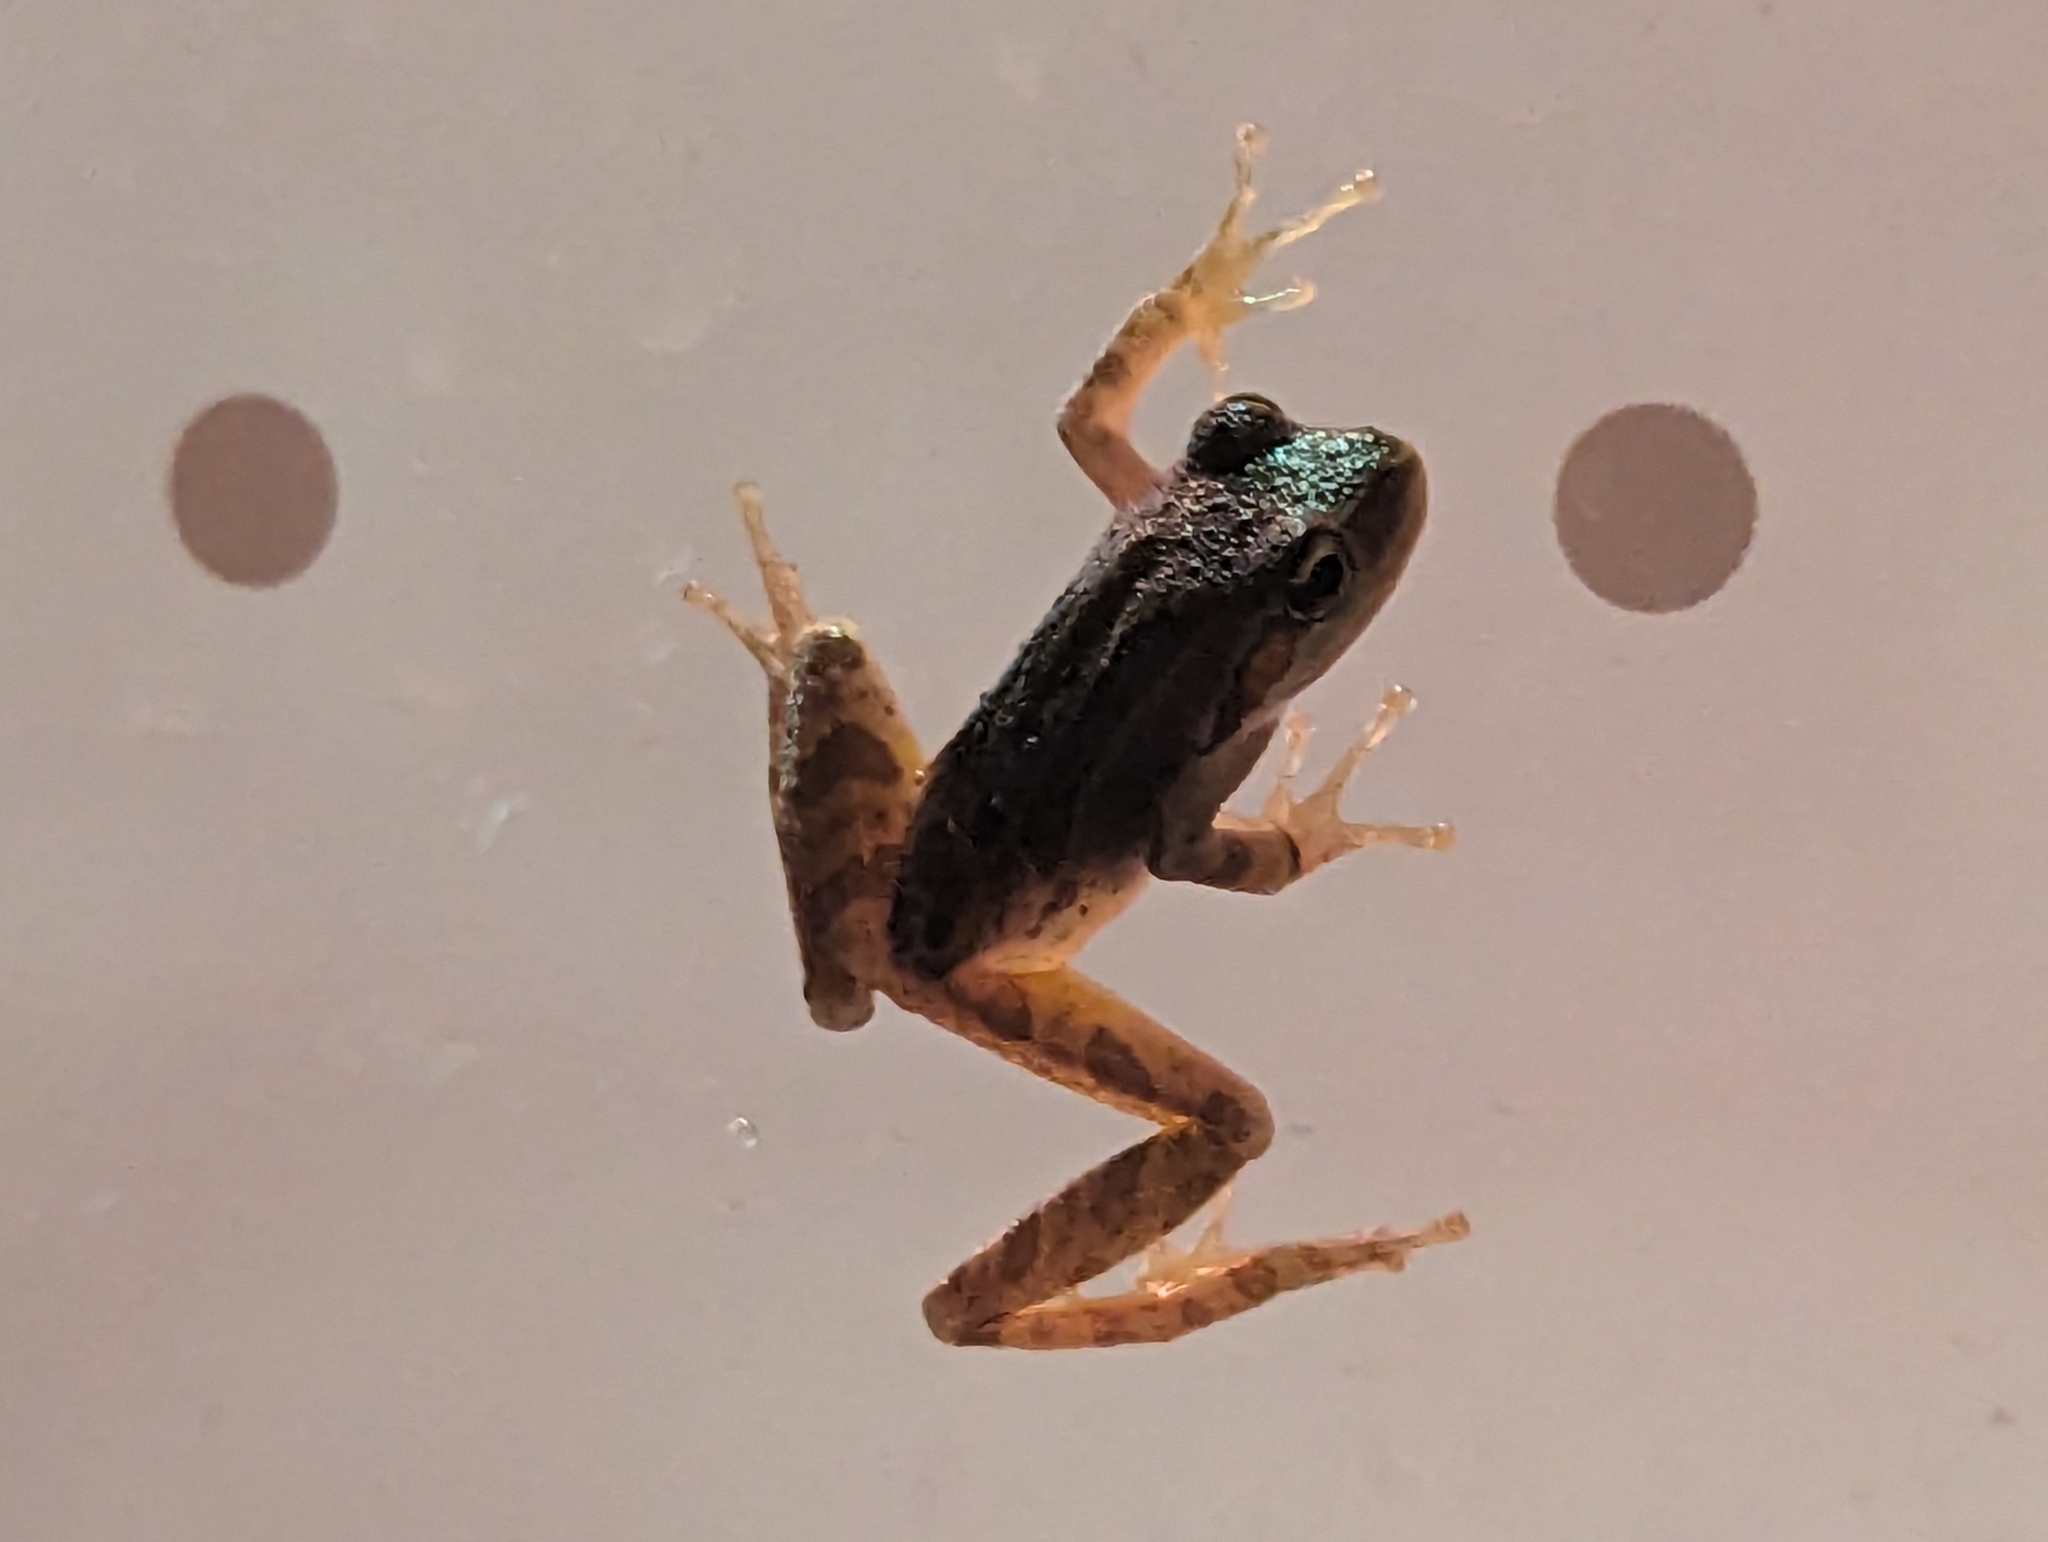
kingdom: Animalia
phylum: Chordata
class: Amphibia
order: Anura
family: Hylidae
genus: Pseudacris
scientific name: Pseudacris regilla
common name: Pacific chorus frog
